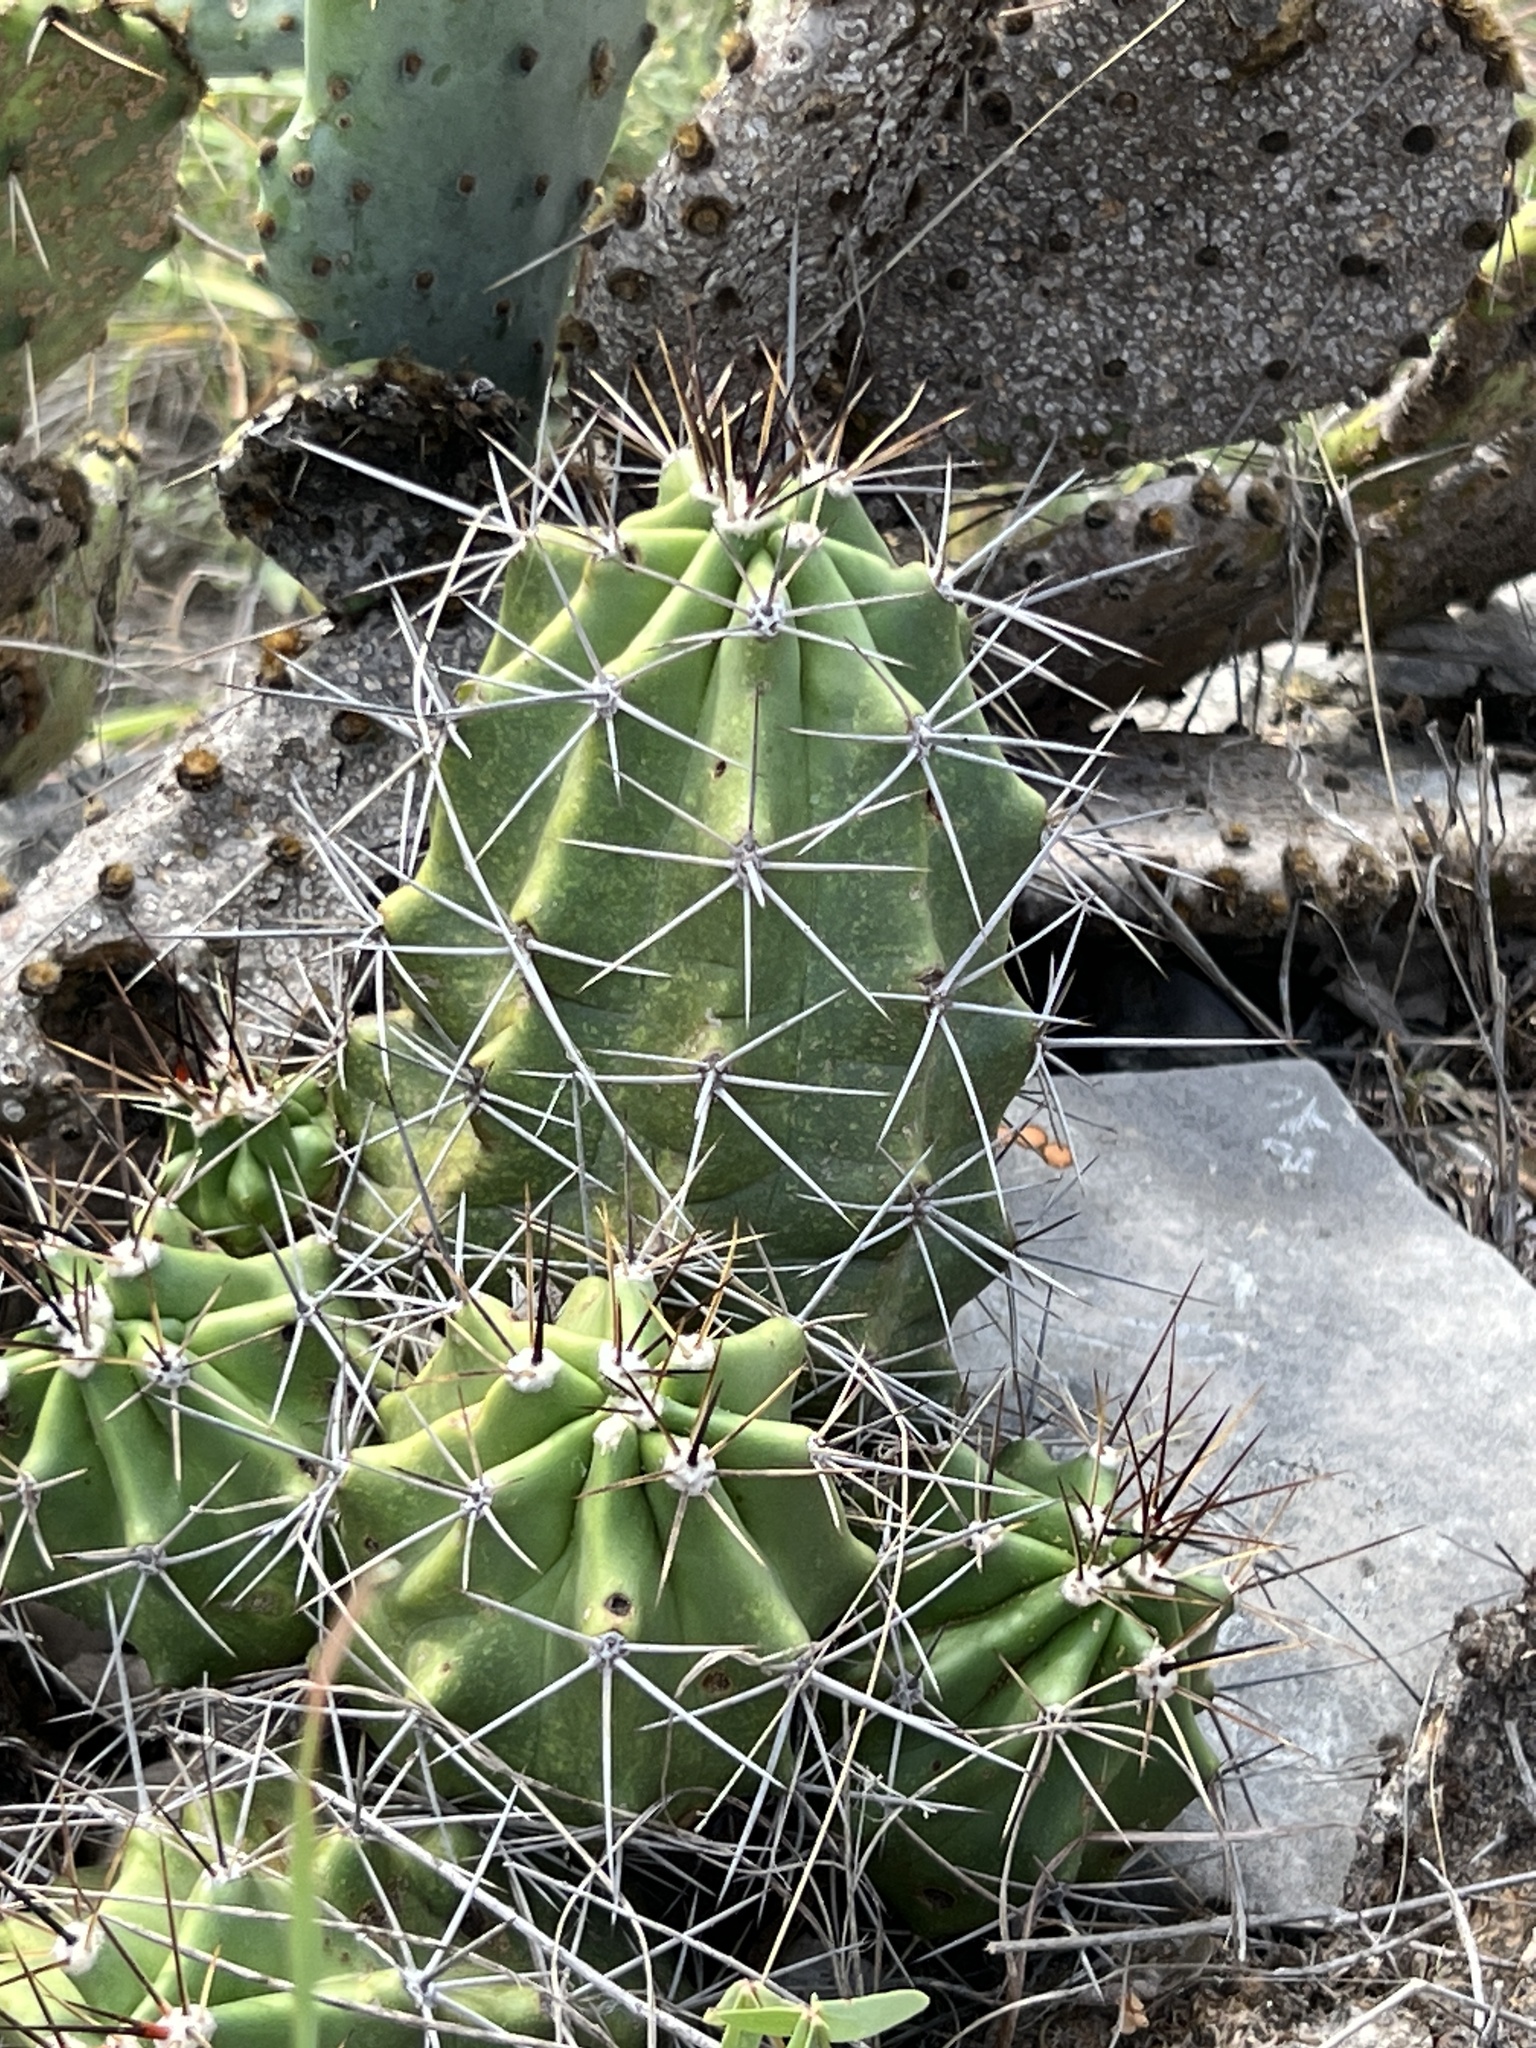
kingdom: Plantae
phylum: Tracheophyta
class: Magnoliopsida
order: Caryophyllales
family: Cactaceae
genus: Echinocereus
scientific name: Echinocereus coccineus
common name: Scarlet hedgehog cactus
